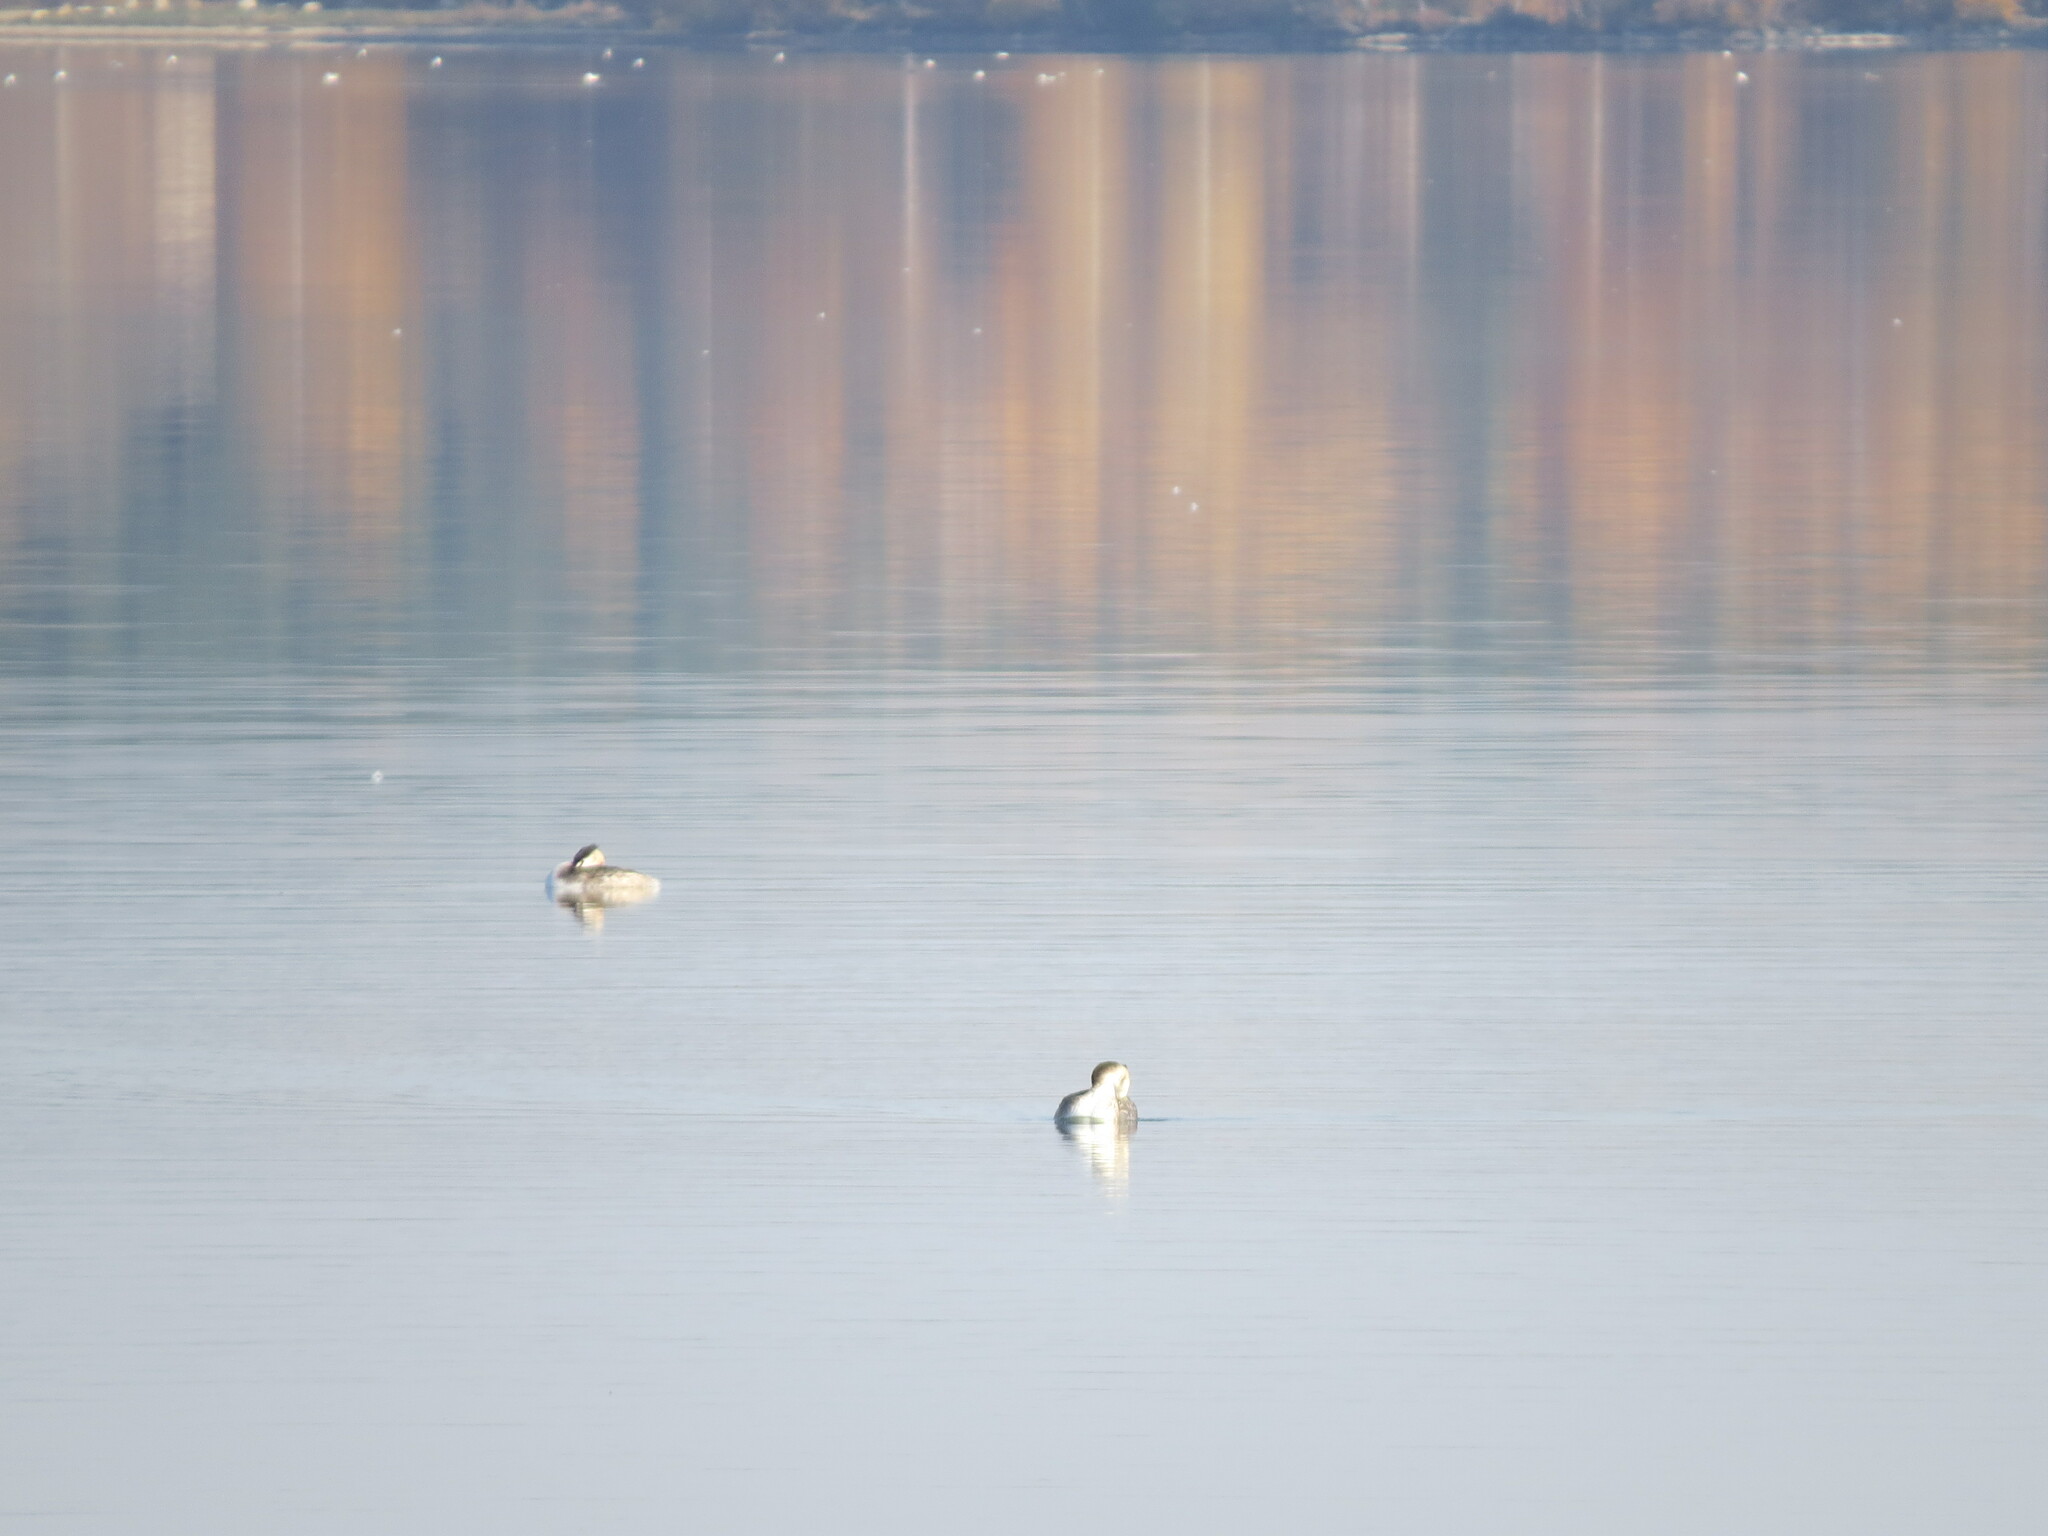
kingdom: Animalia
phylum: Chordata
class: Aves
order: Podicipediformes
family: Podicipedidae
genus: Podiceps
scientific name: Podiceps cristatus
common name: Great crested grebe
